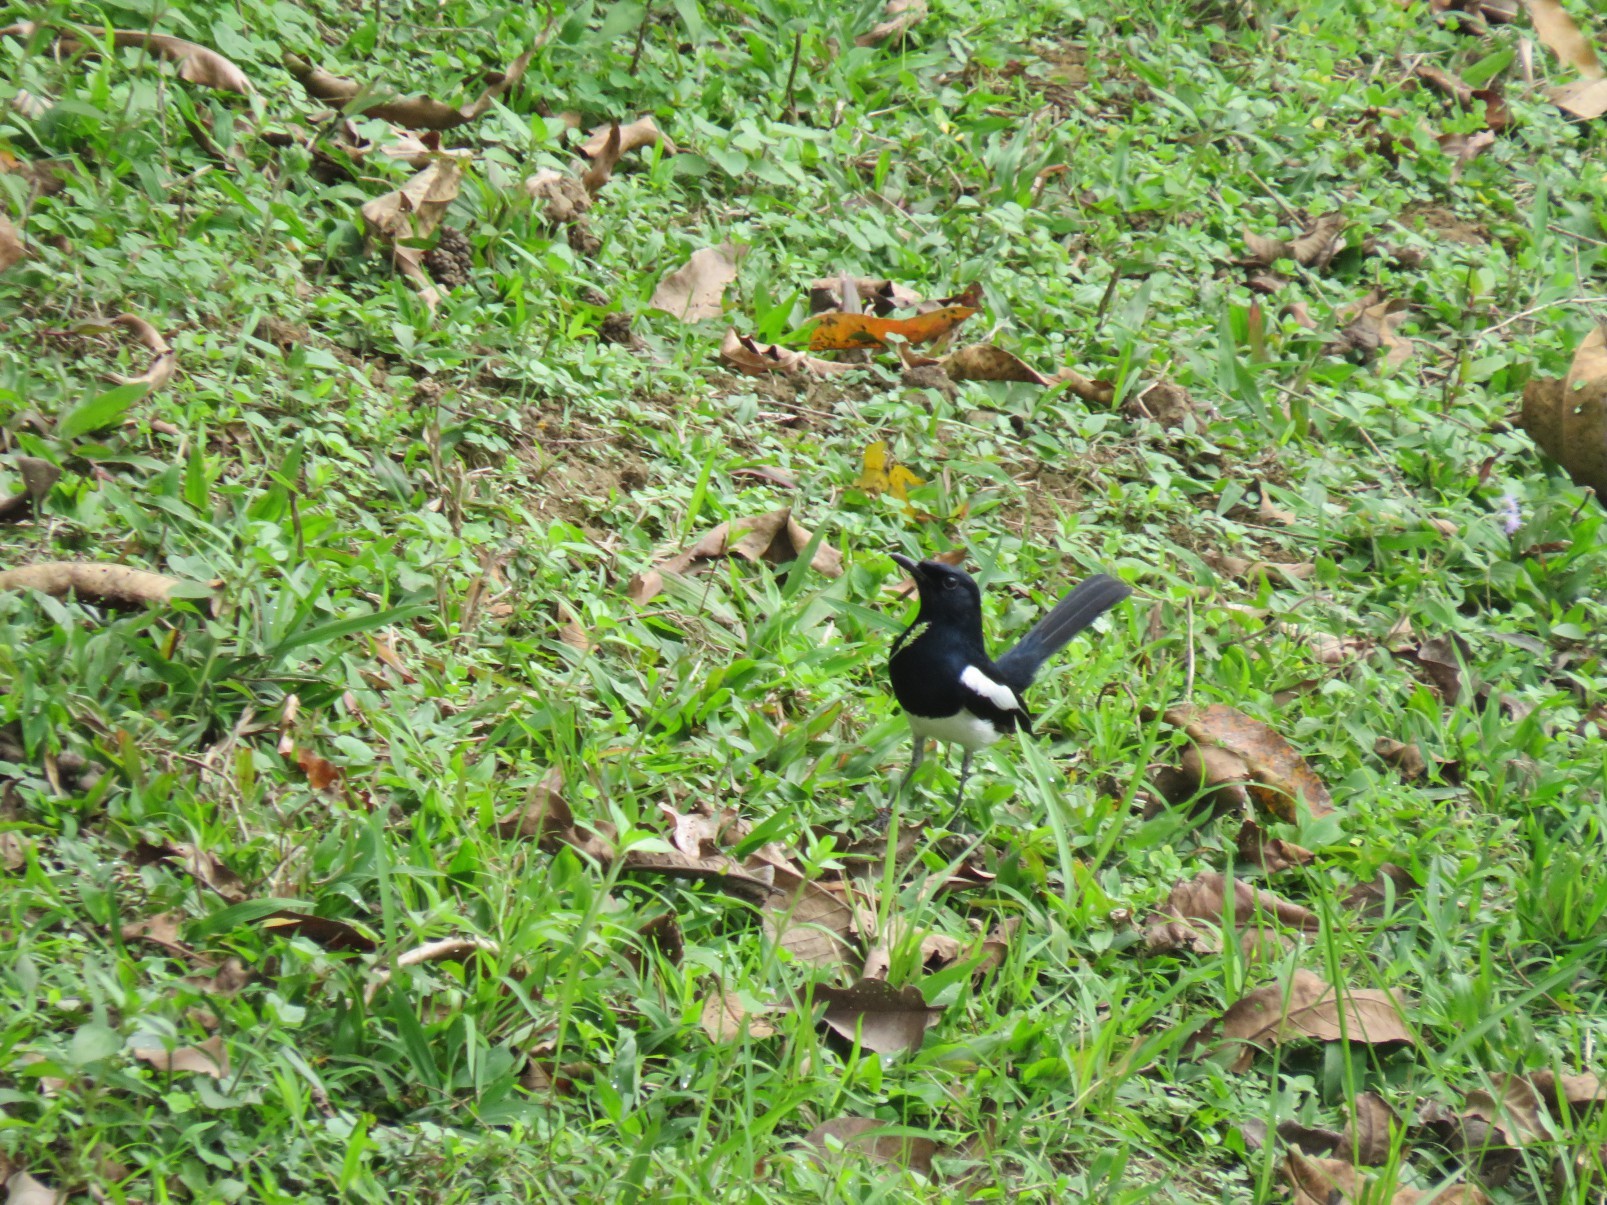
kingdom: Animalia
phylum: Chordata
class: Aves
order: Passeriformes
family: Muscicapidae
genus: Copsychus
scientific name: Copsychus saularis
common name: Oriental magpie-robin
